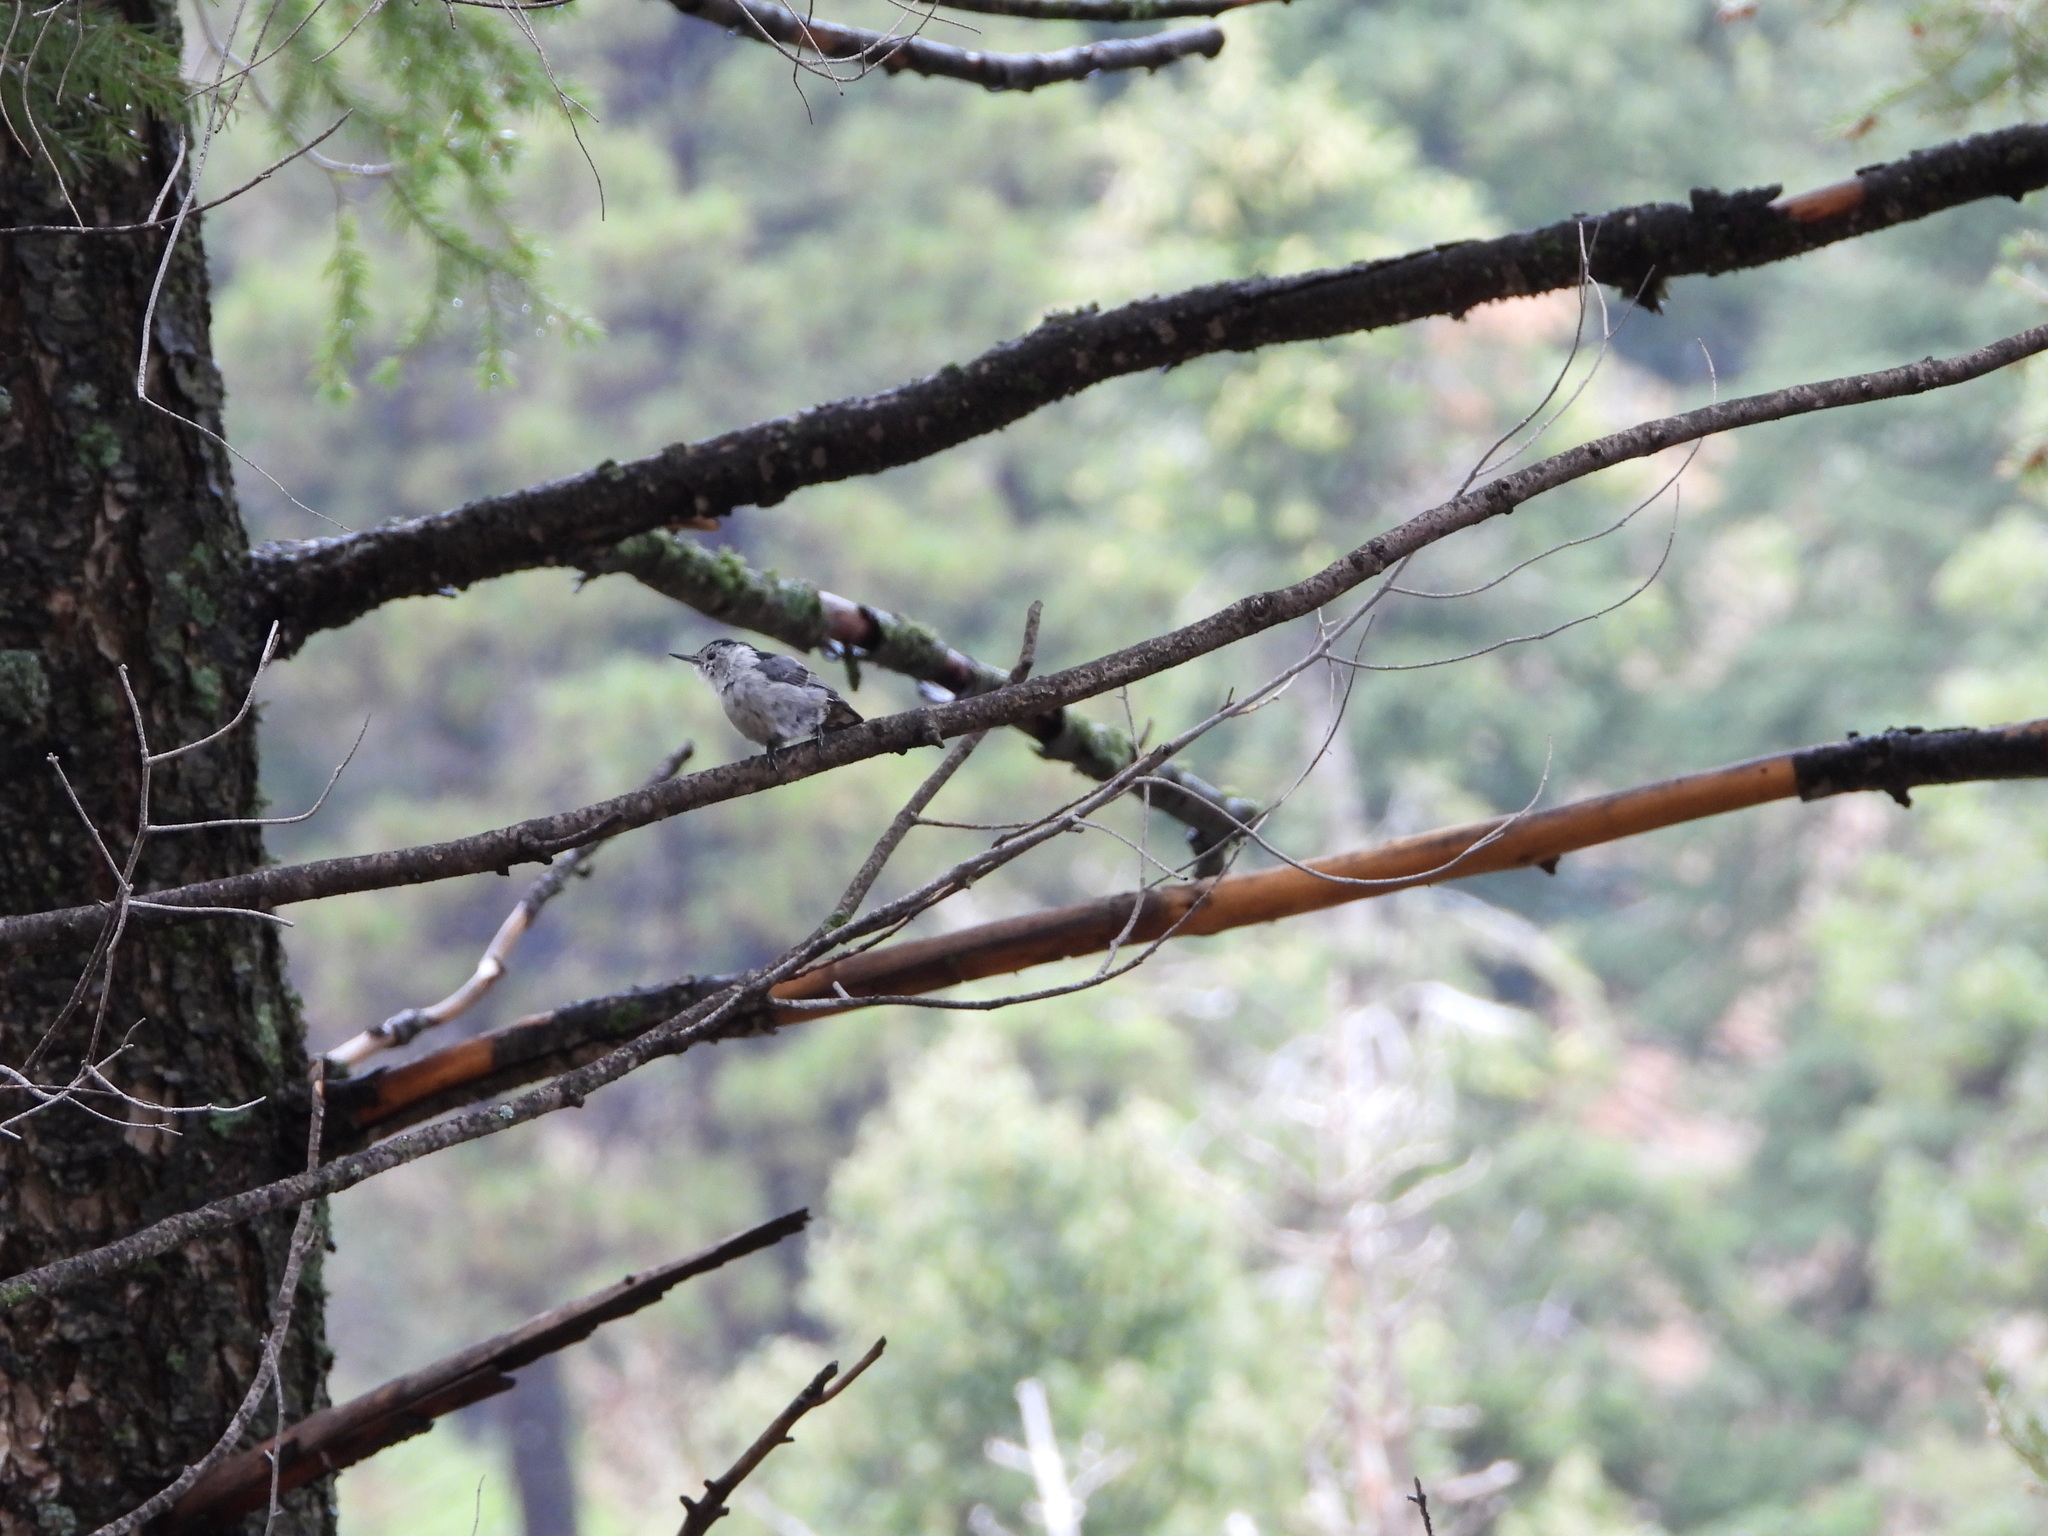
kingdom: Animalia
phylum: Chordata
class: Aves
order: Passeriformes
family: Sittidae
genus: Sitta
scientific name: Sitta carolinensis
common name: White-breasted nuthatch
